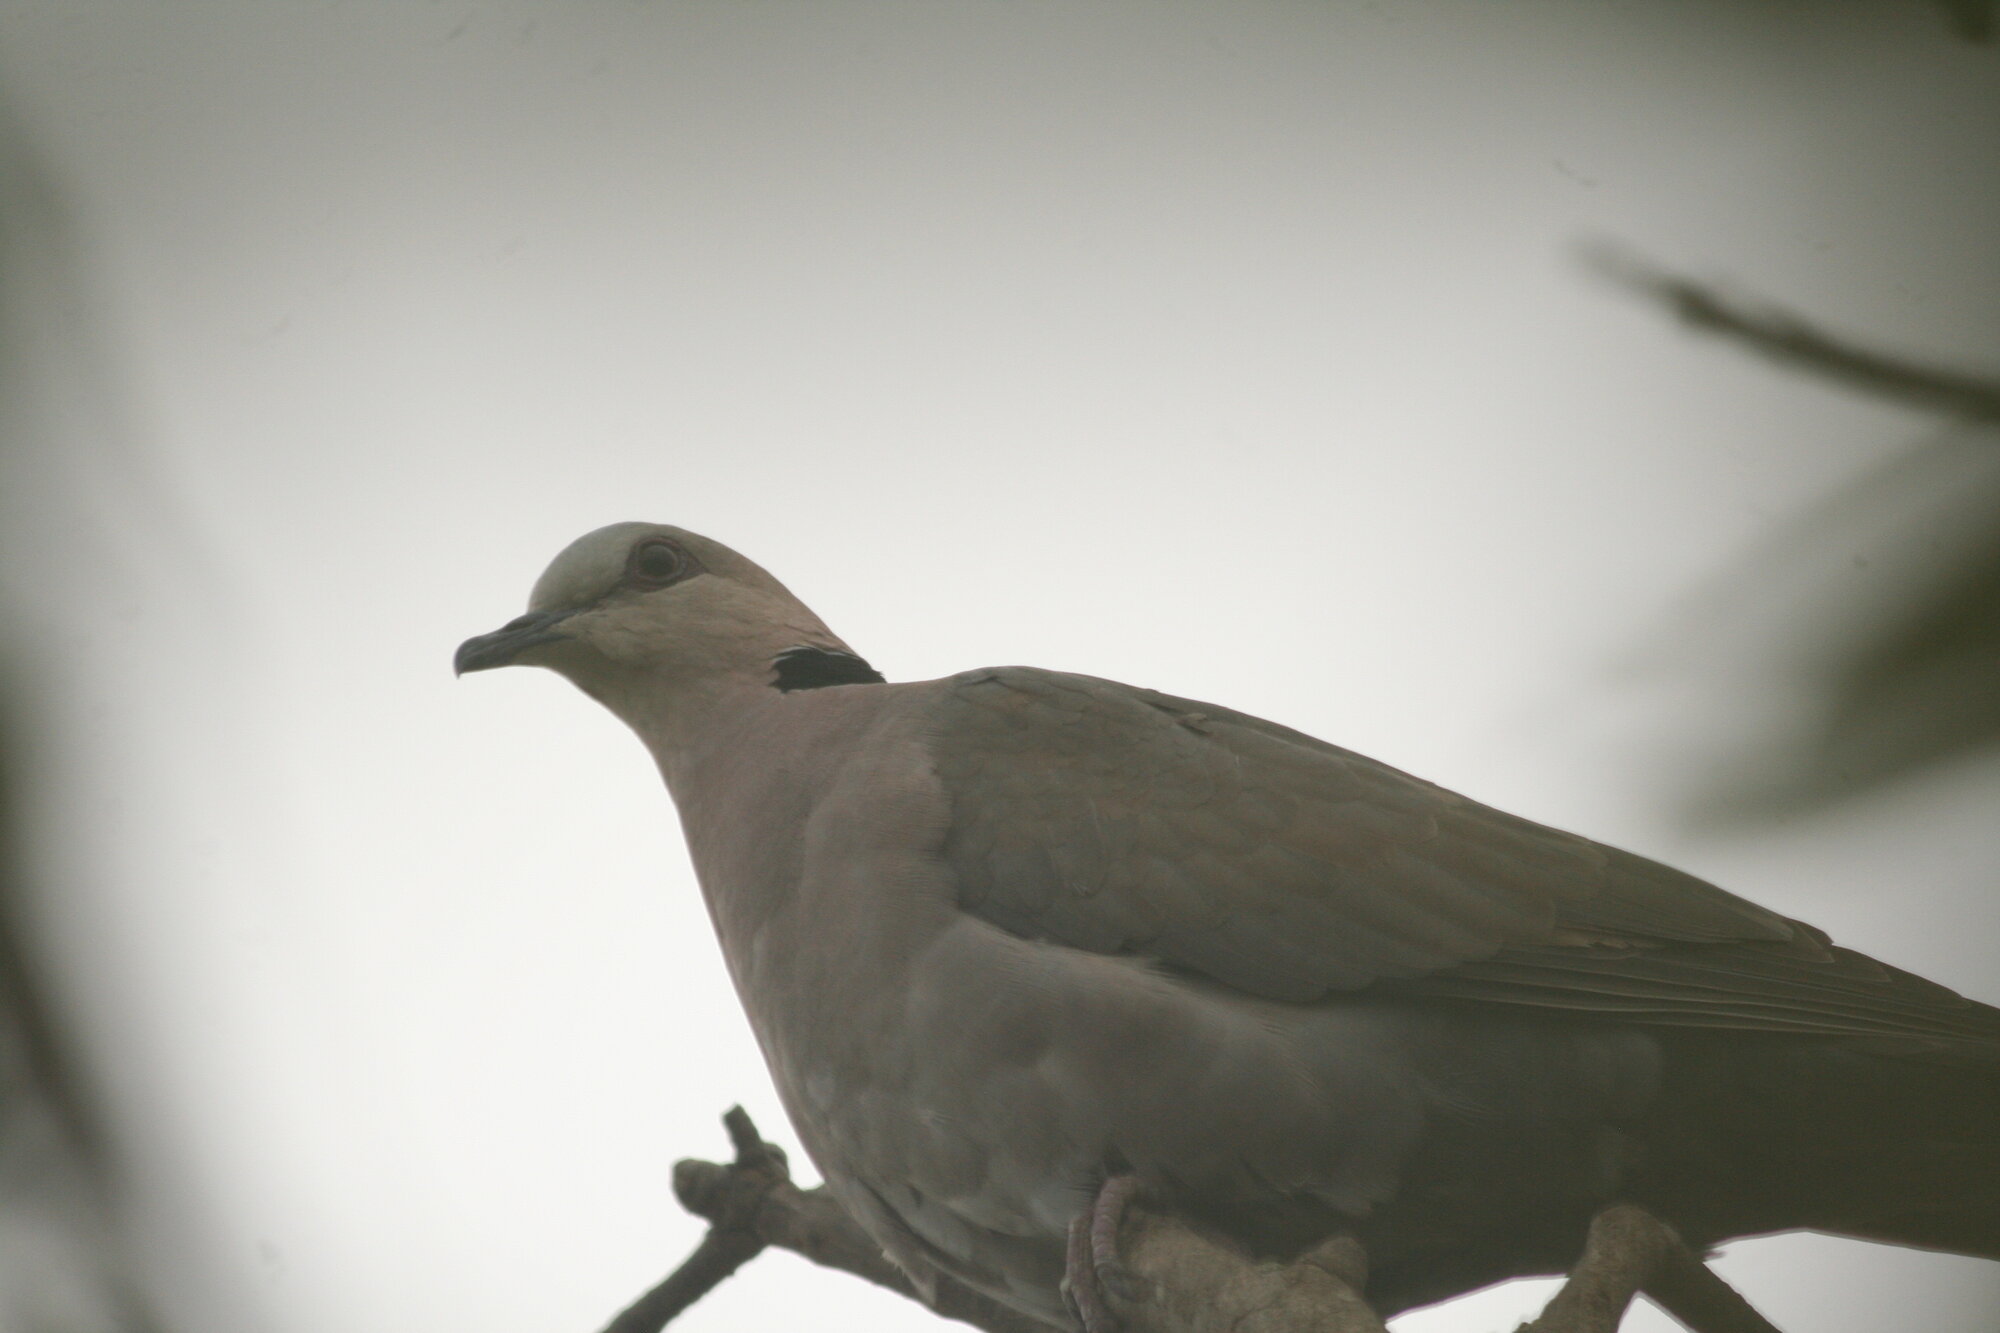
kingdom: Animalia
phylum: Chordata
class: Aves
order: Columbiformes
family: Columbidae
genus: Streptopelia
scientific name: Streptopelia semitorquata
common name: Red-eyed dove
